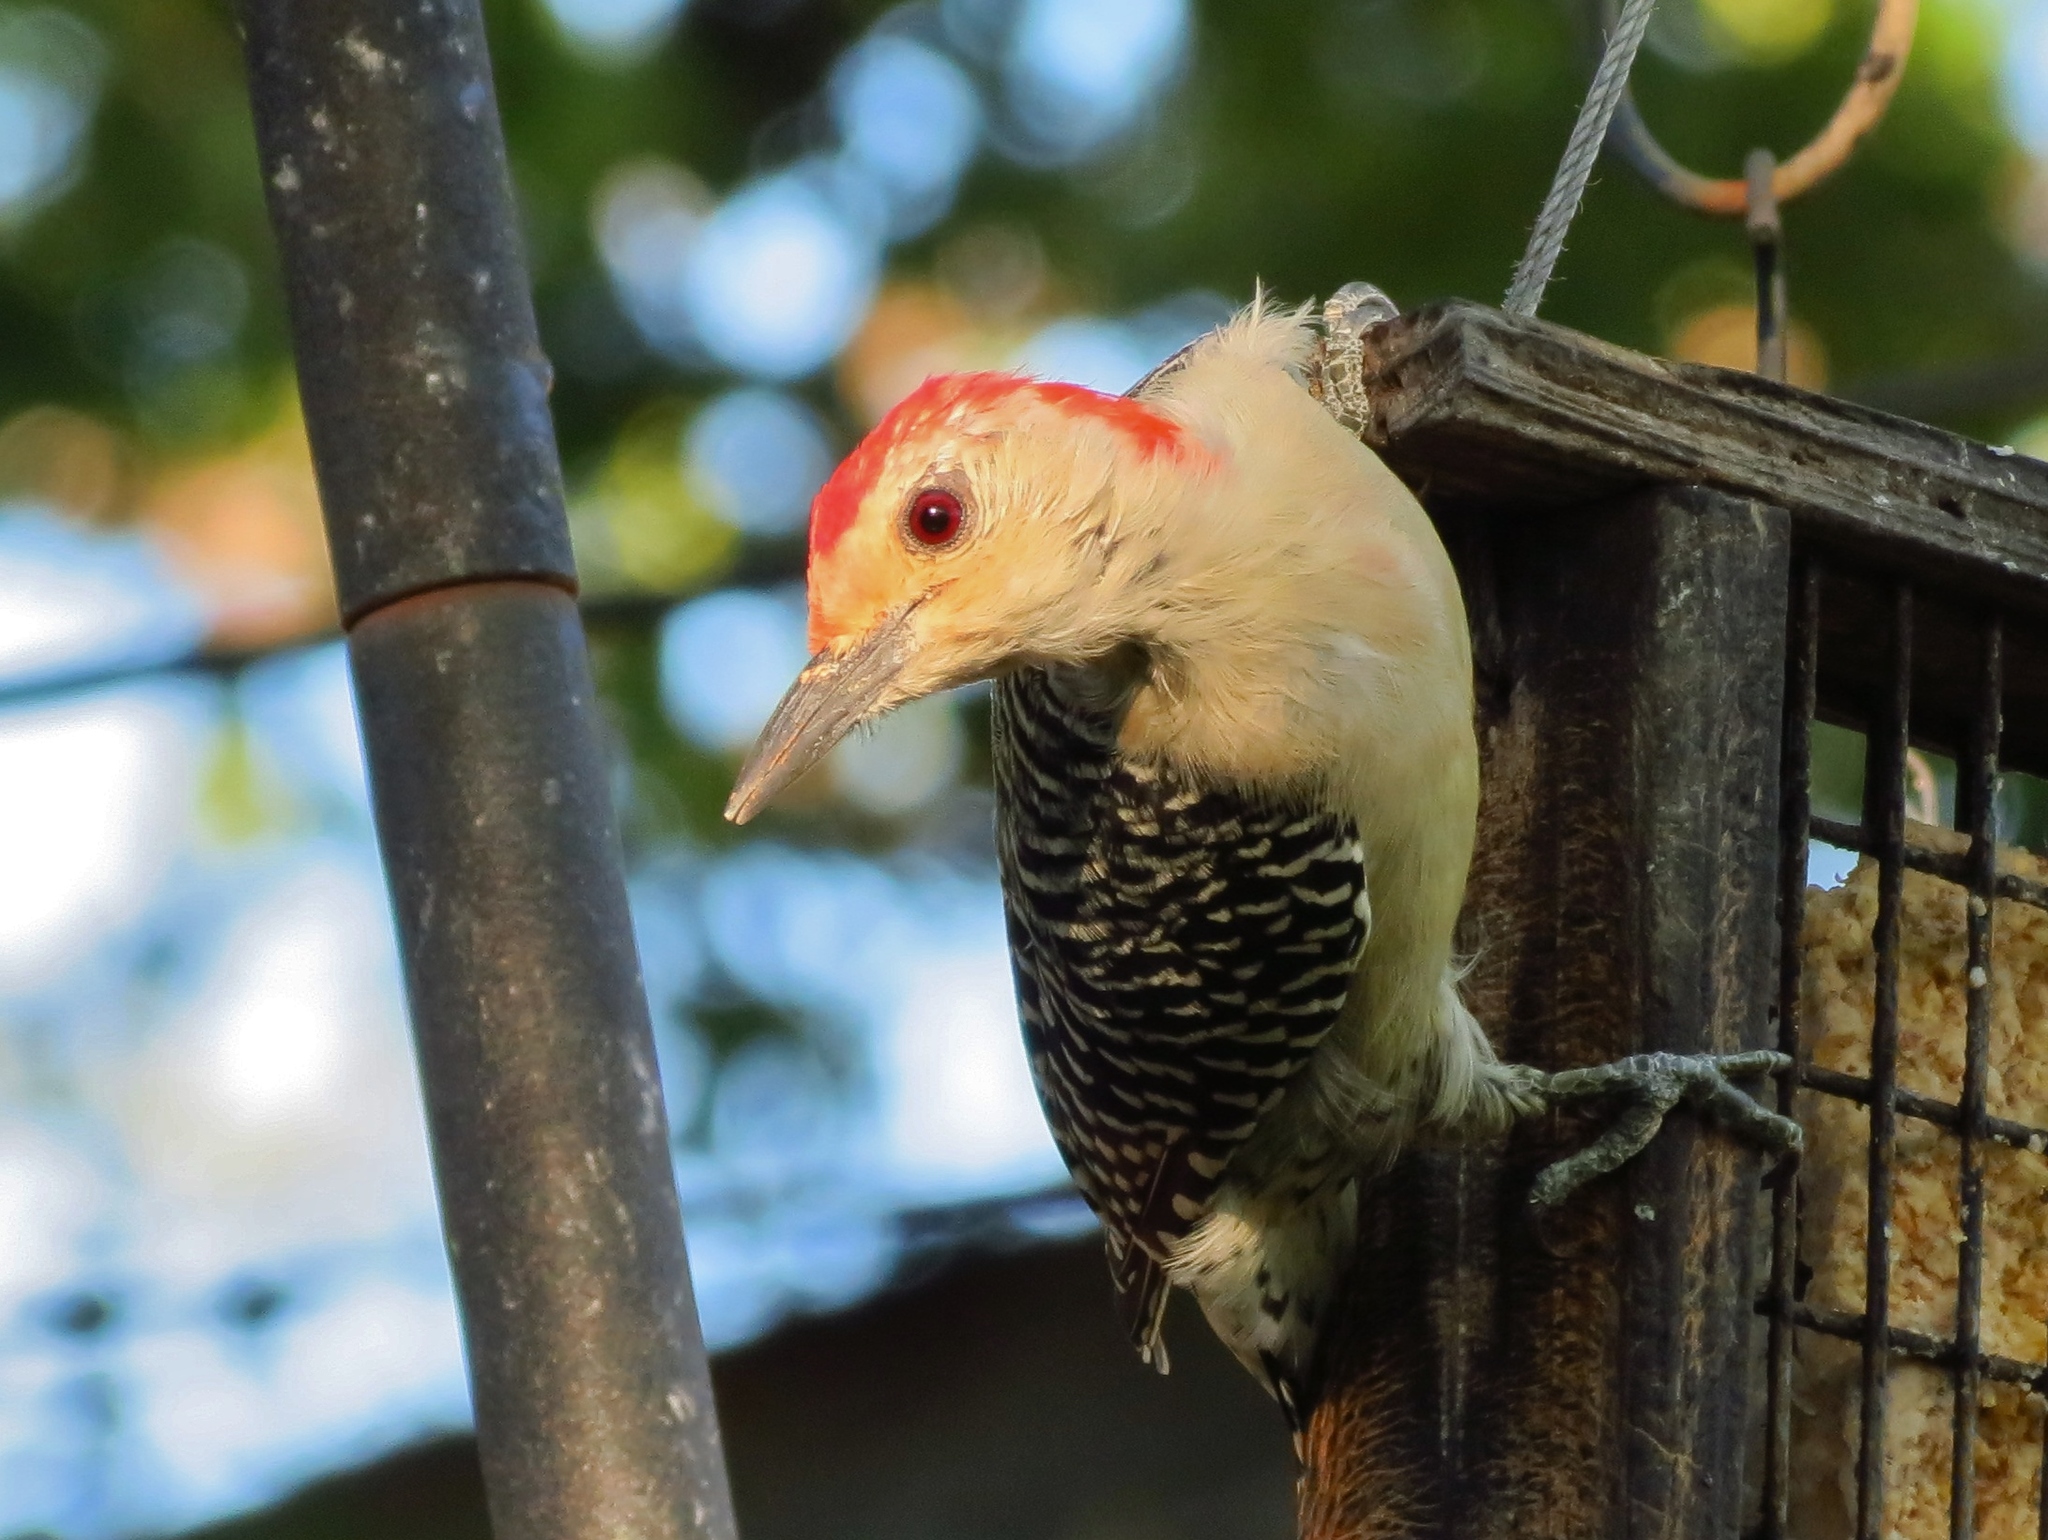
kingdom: Animalia
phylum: Chordata
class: Aves
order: Piciformes
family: Picidae
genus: Melanerpes
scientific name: Melanerpes carolinus
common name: Red-bellied woodpecker
